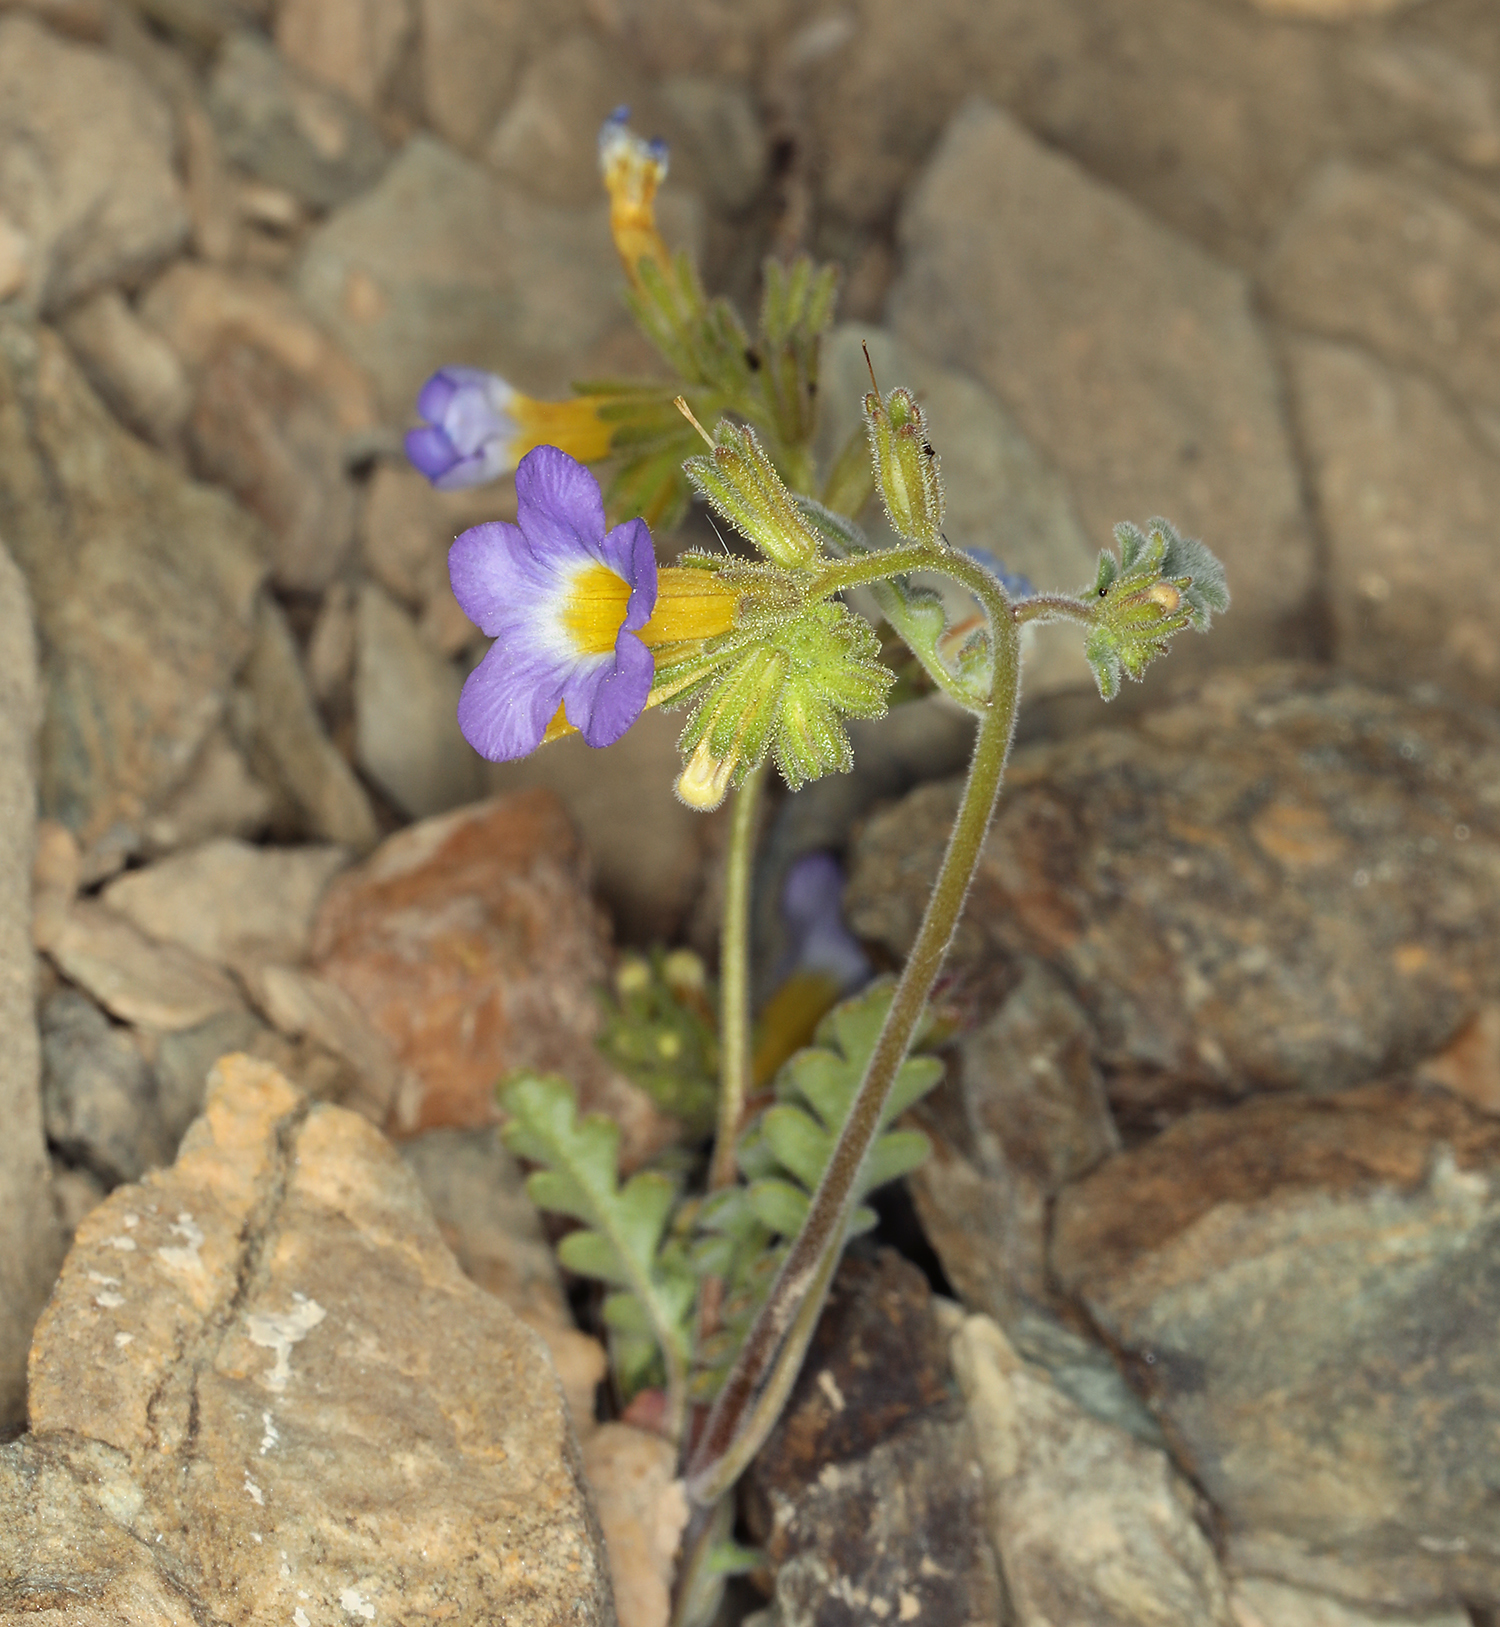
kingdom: Plantae
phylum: Tracheophyta
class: Magnoliopsida
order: Boraginales
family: Hydrophyllaceae
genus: Phacelia
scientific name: Phacelia fremontii
